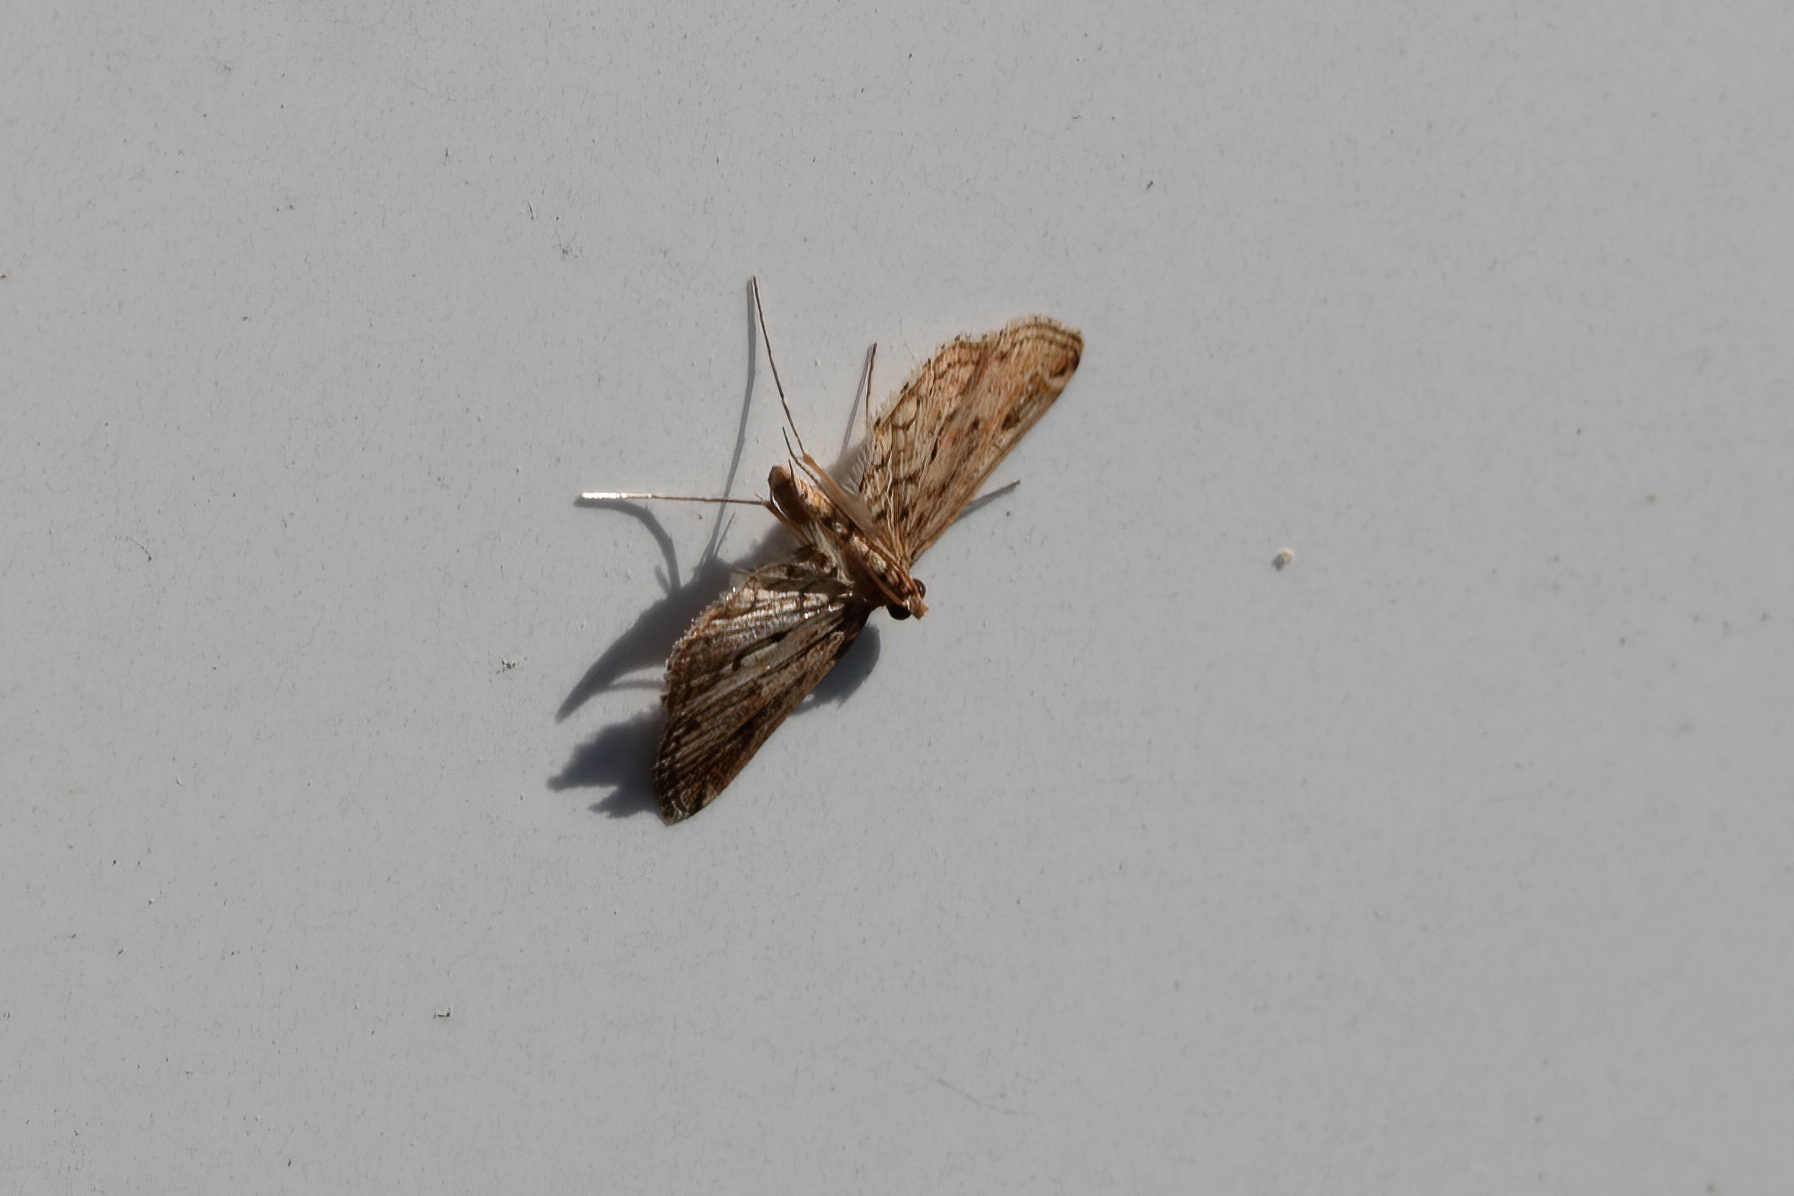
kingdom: Animalia
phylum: Arthropoda
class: Insecta
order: Lepidoptera
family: Crambidae
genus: Parapoynx
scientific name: Parapoynx allionealis
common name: Bladderwort casemaker
